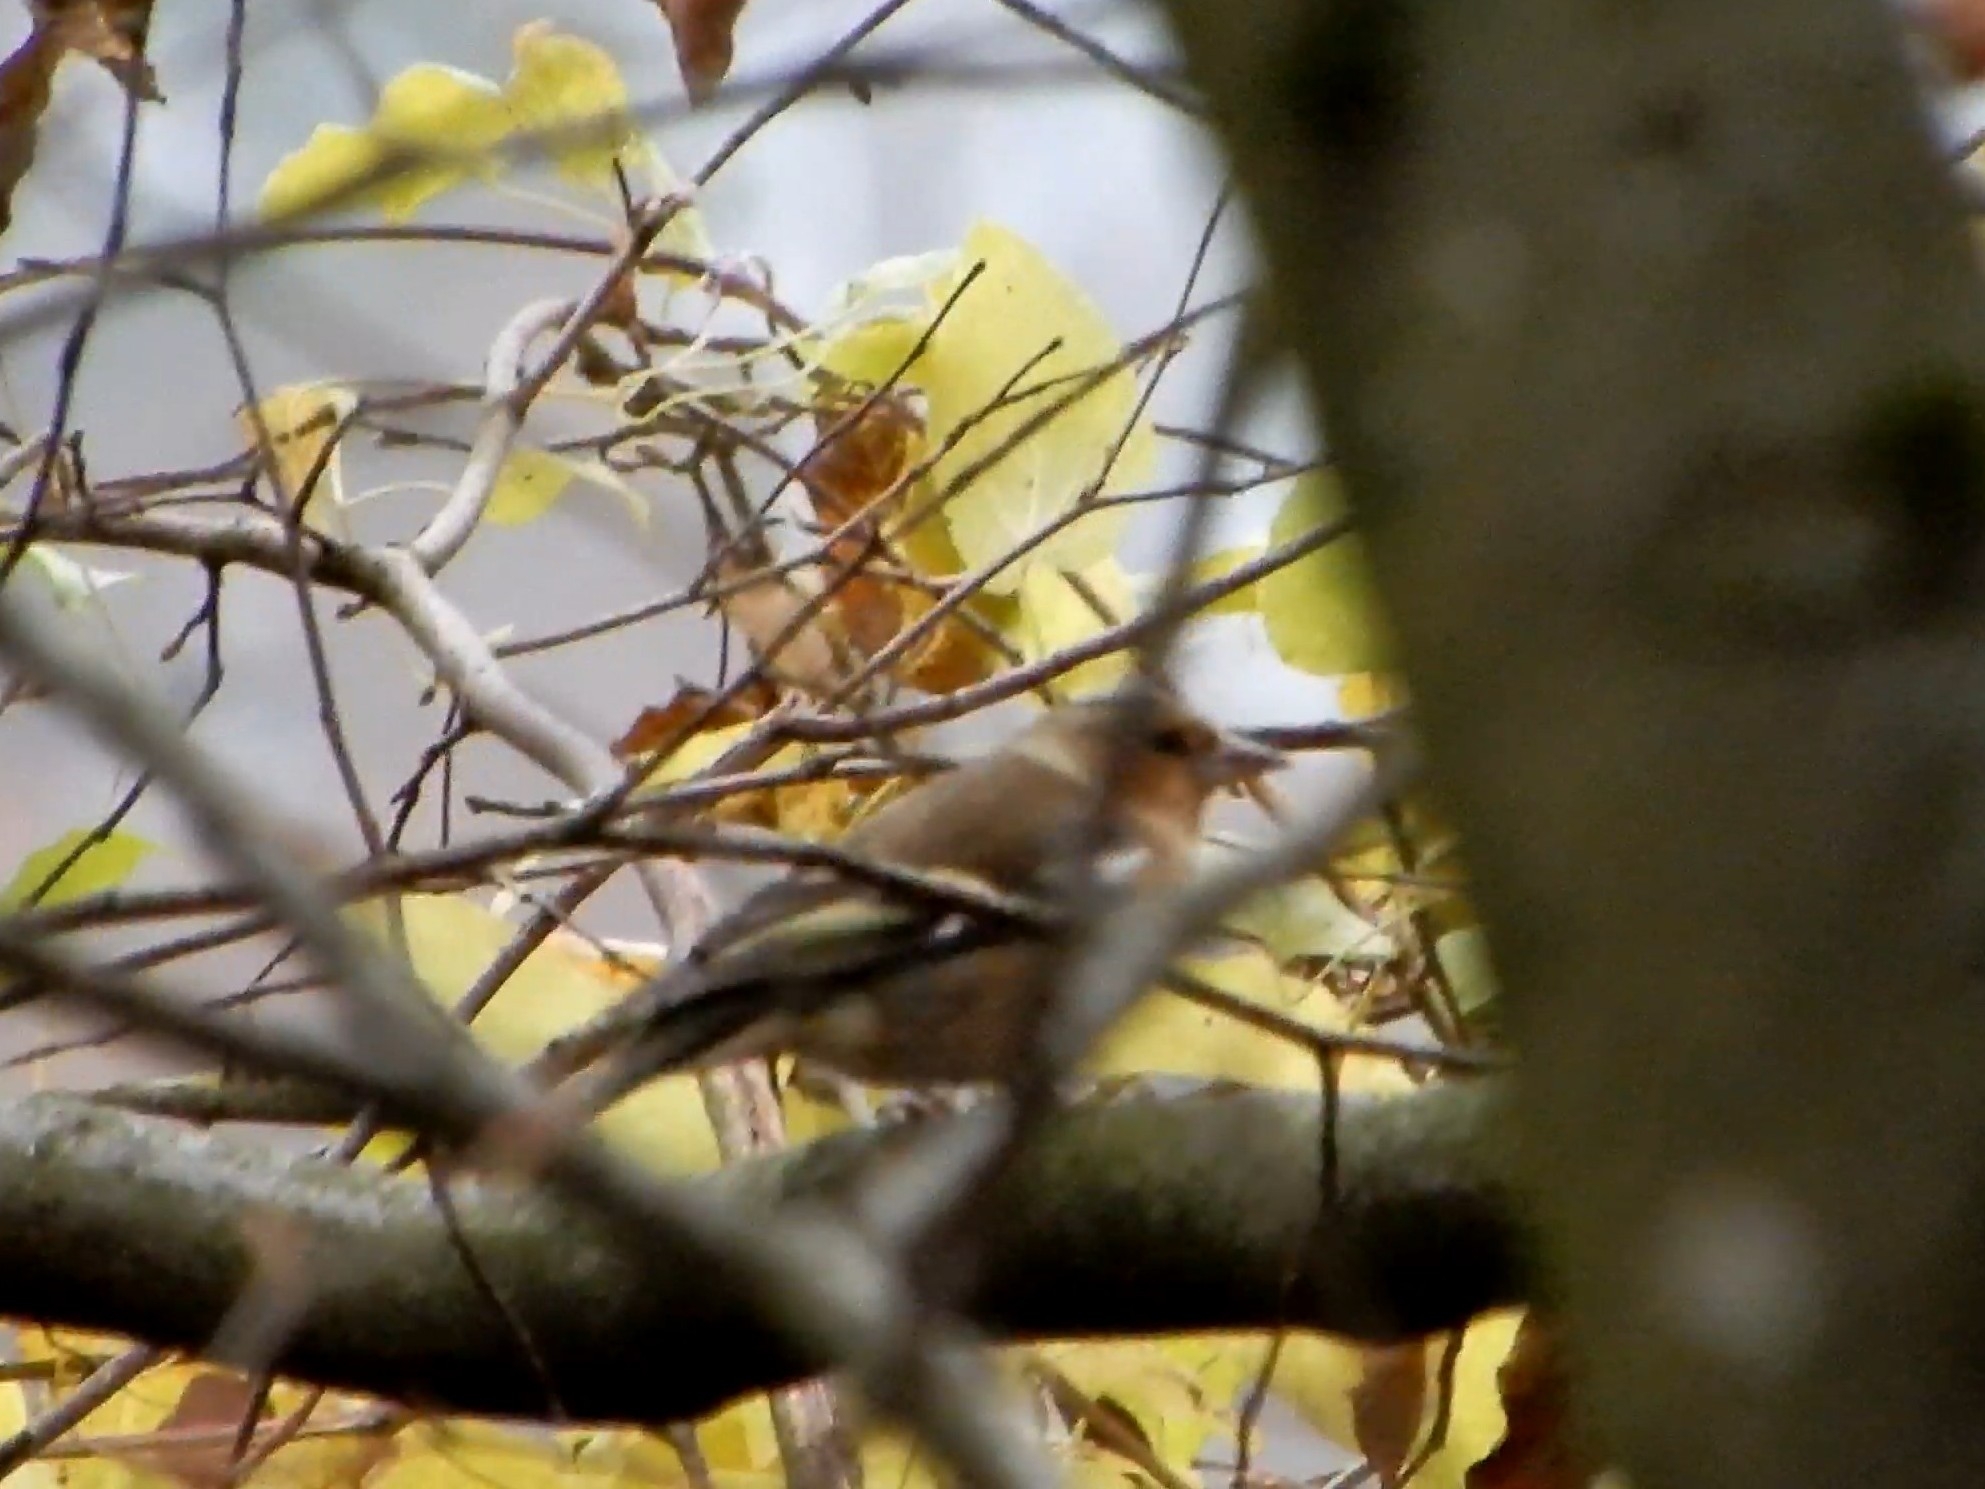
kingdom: Animalia
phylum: Chordata
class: Aves
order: Passeriformes
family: Fringillidae
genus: Fringilla
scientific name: Fringilla coelebs
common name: Common chaffinch
